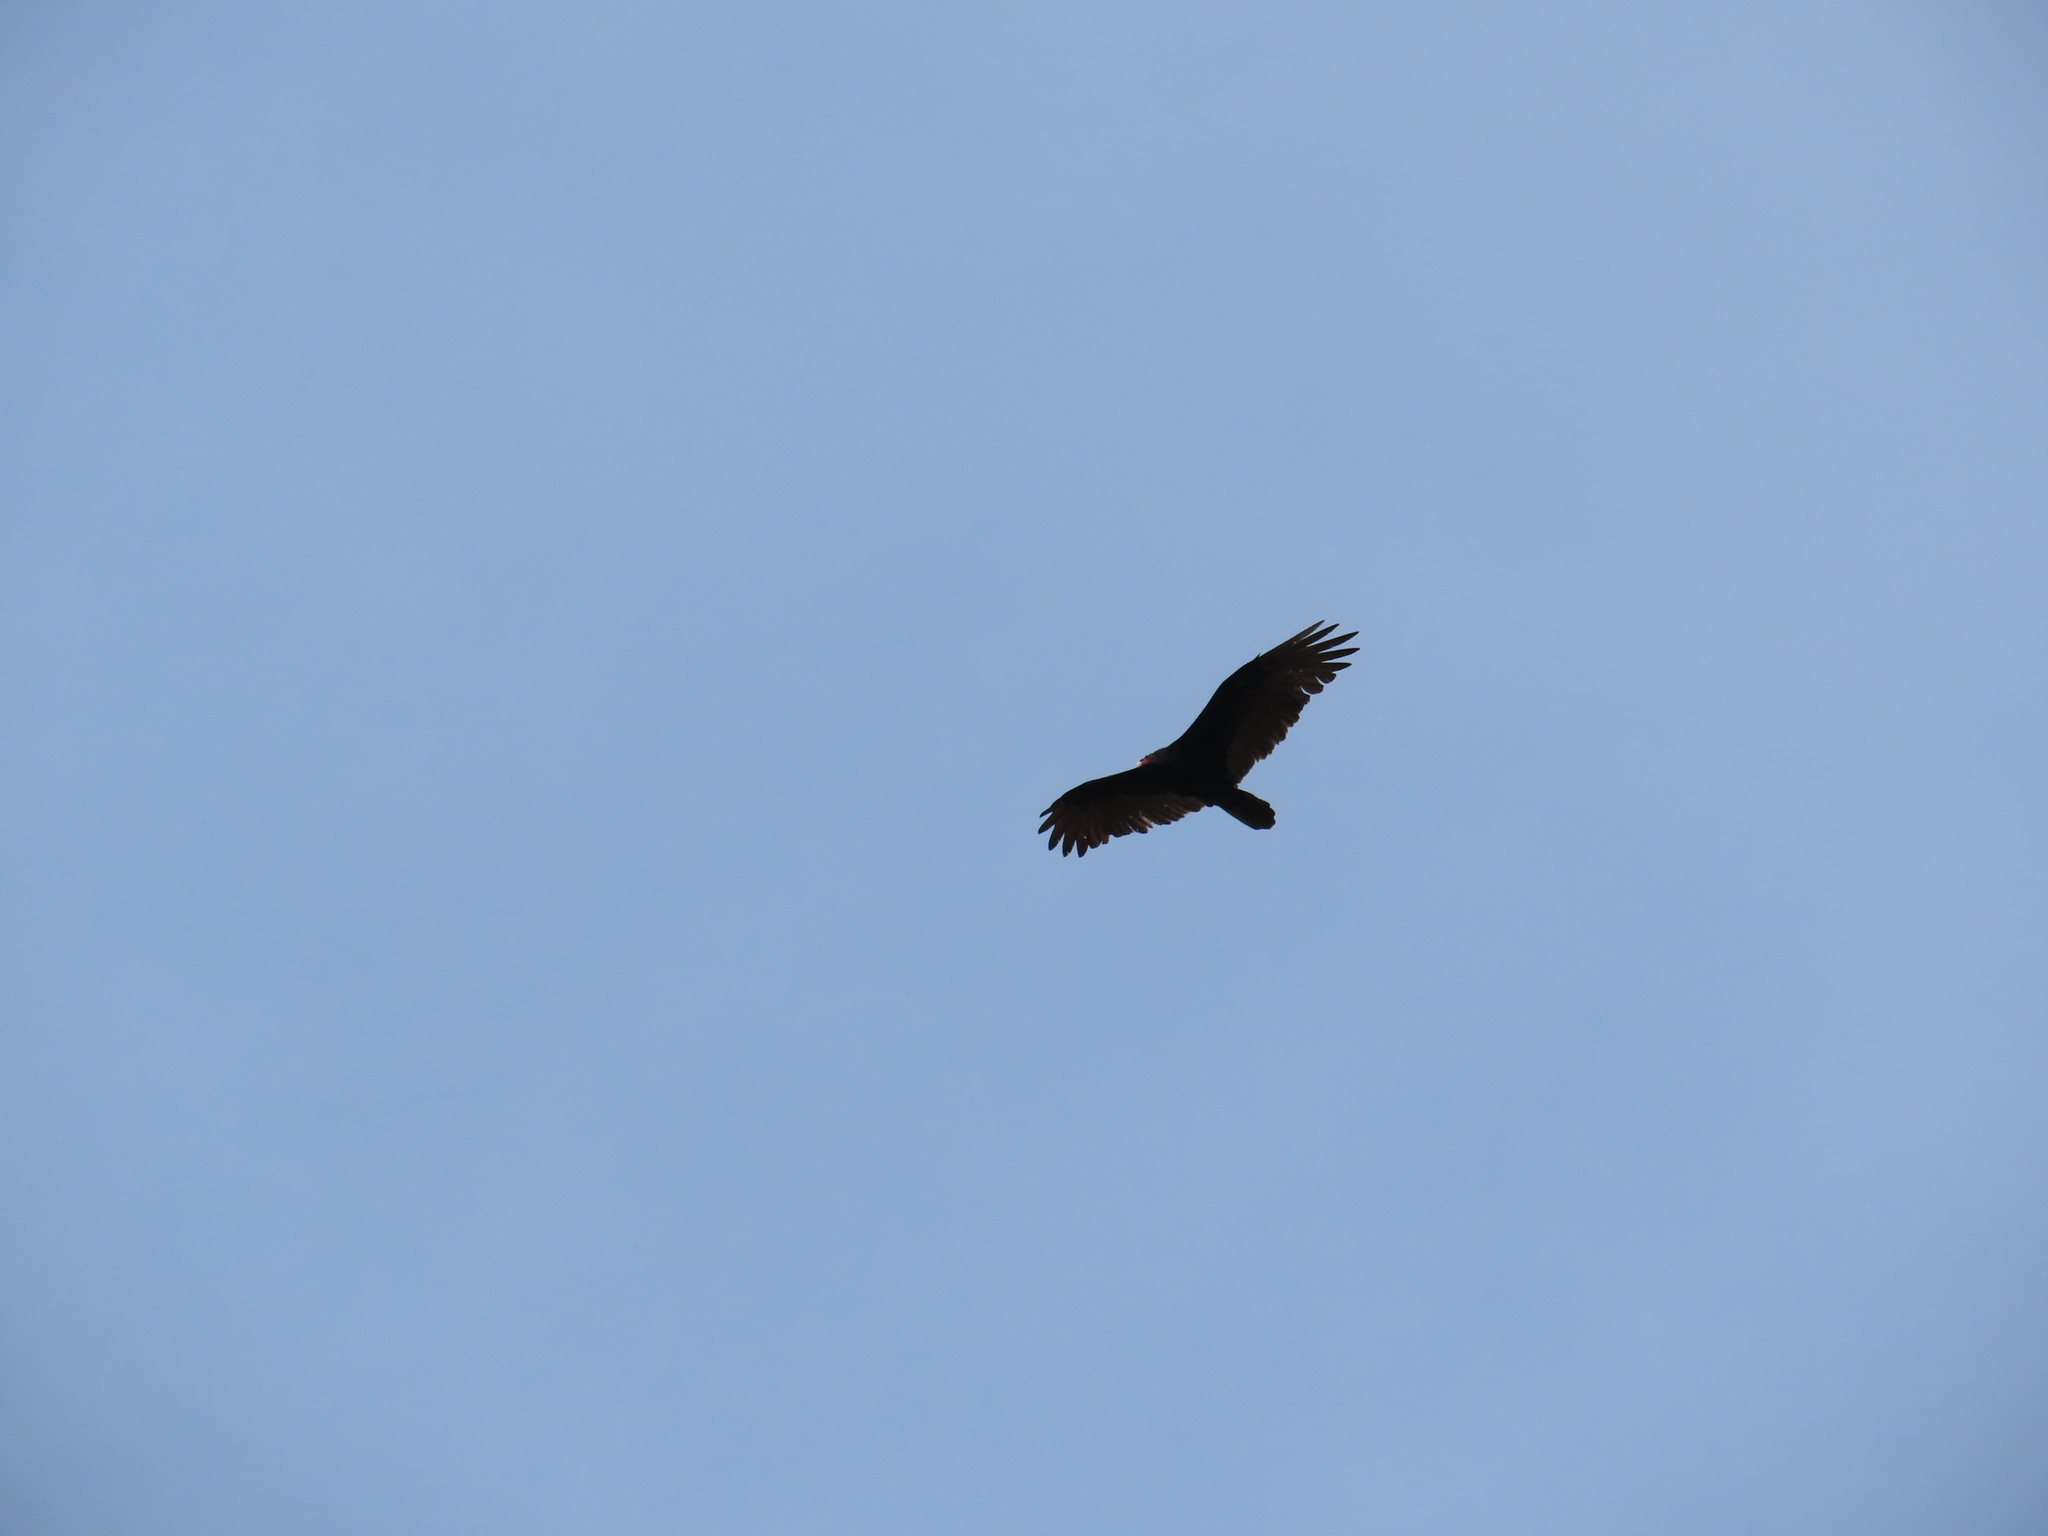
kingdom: Animalia
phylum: Chordata
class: Aves
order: Accipitriformes
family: Cathartidae
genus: Cathartes
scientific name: Cathartes aura
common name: Turkey vulture
